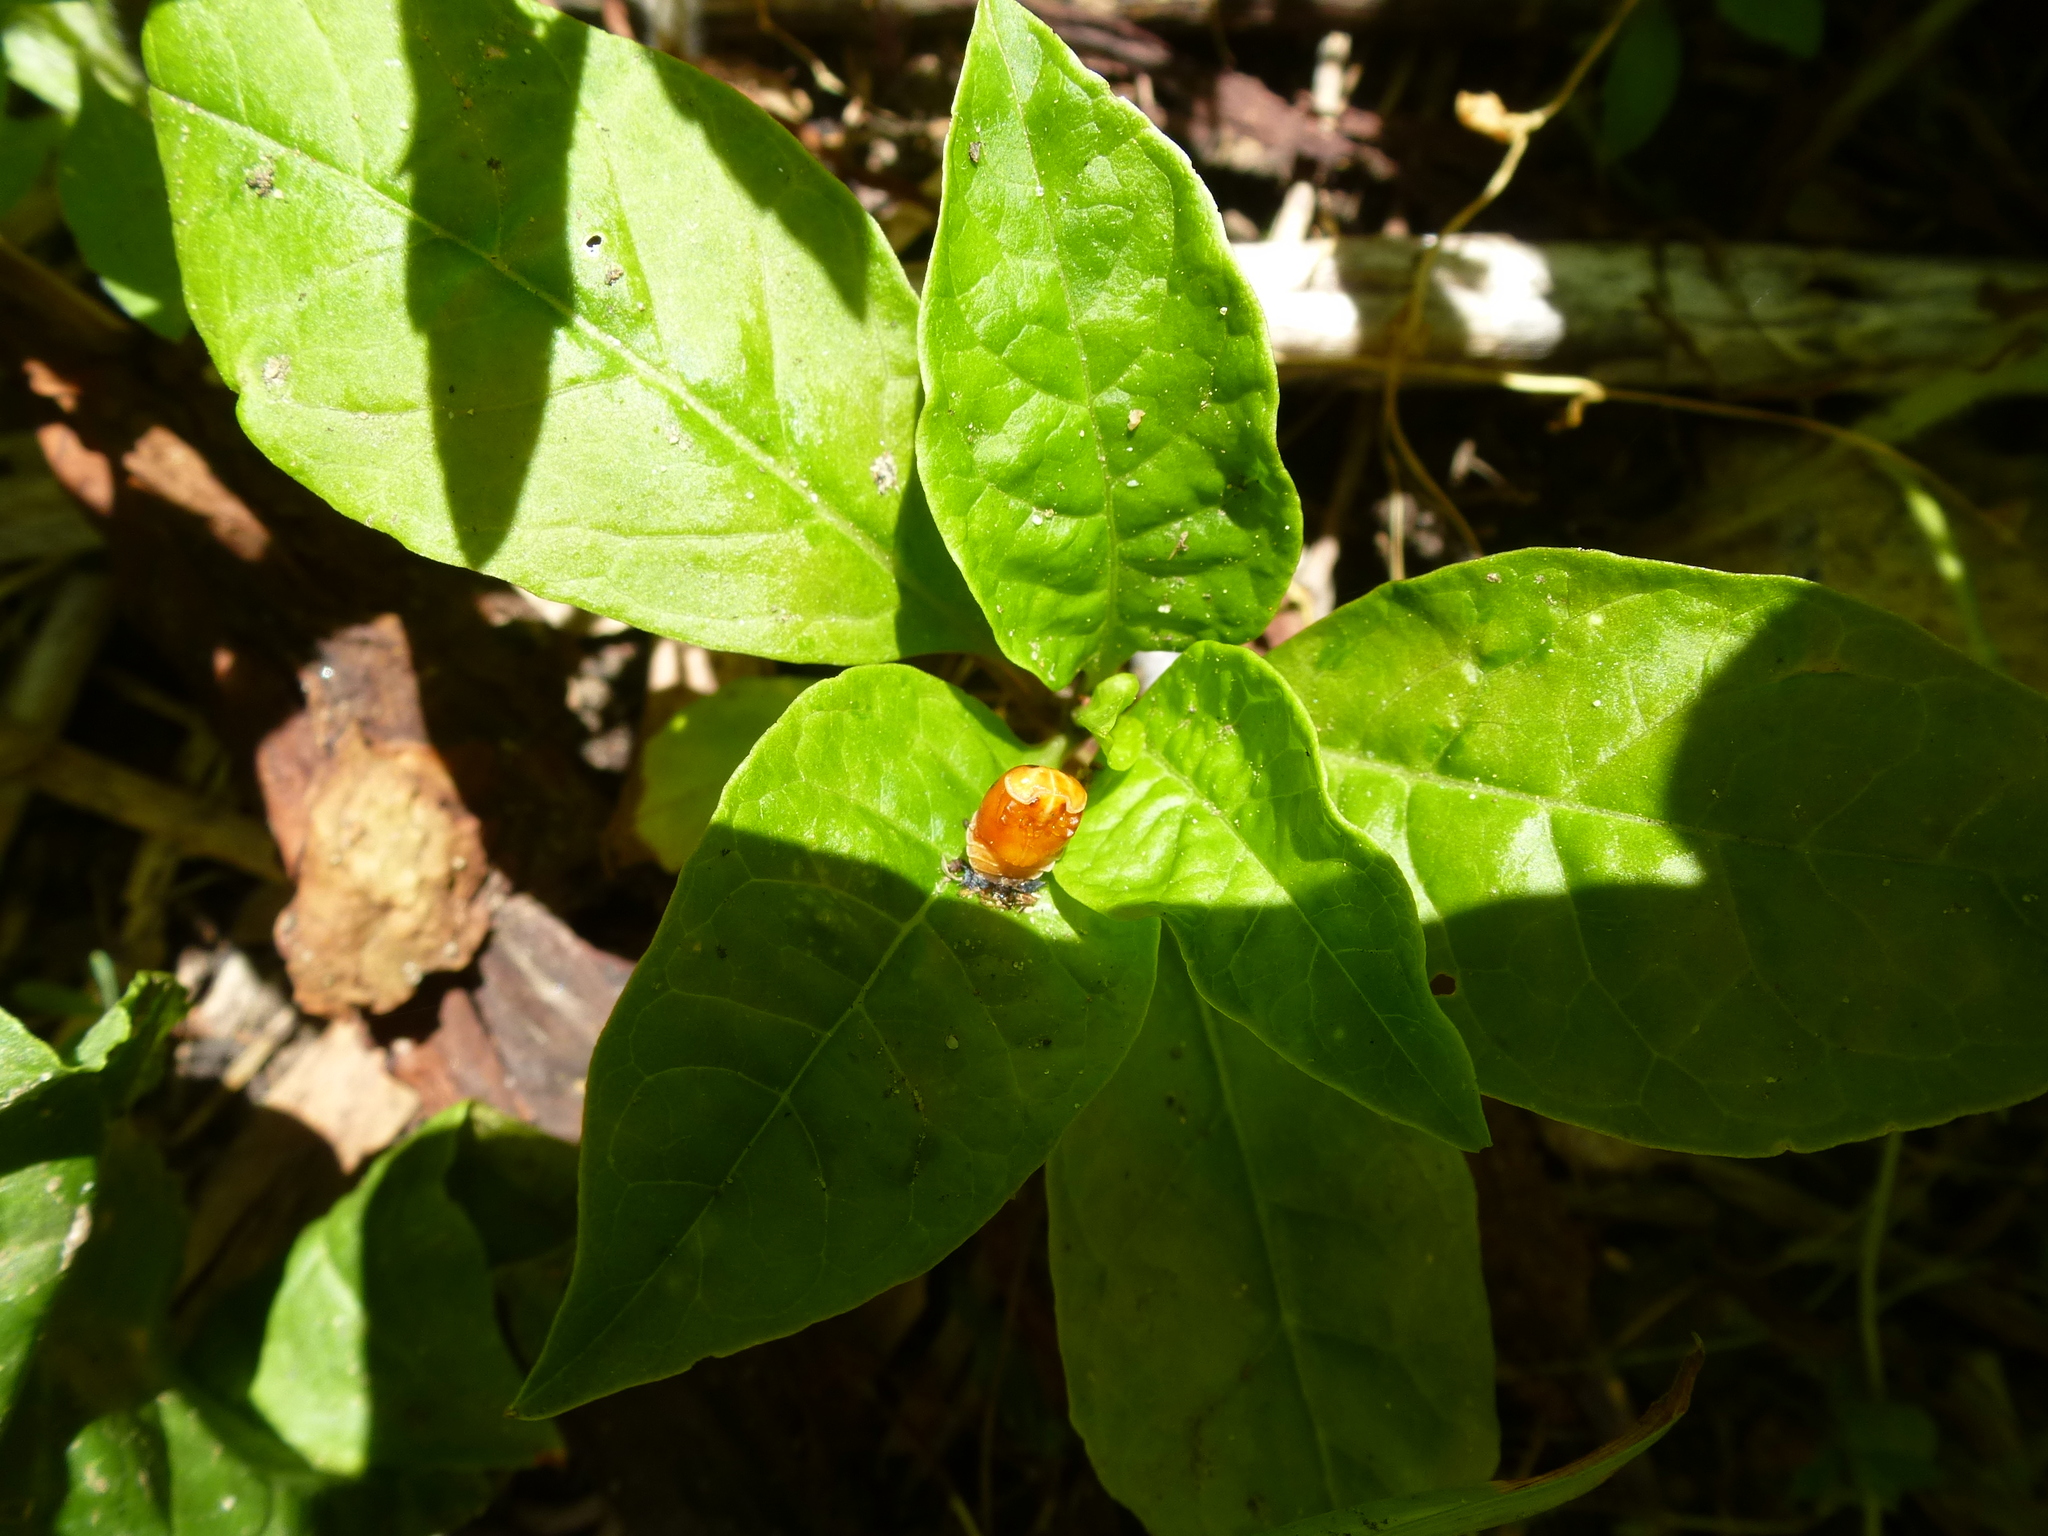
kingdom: Animalia
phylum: Arthropoda
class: Insecta
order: Coleoptera
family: Coccinellidae
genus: Harmonia
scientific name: Harmonia axyridis
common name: Harlequin ladybird
